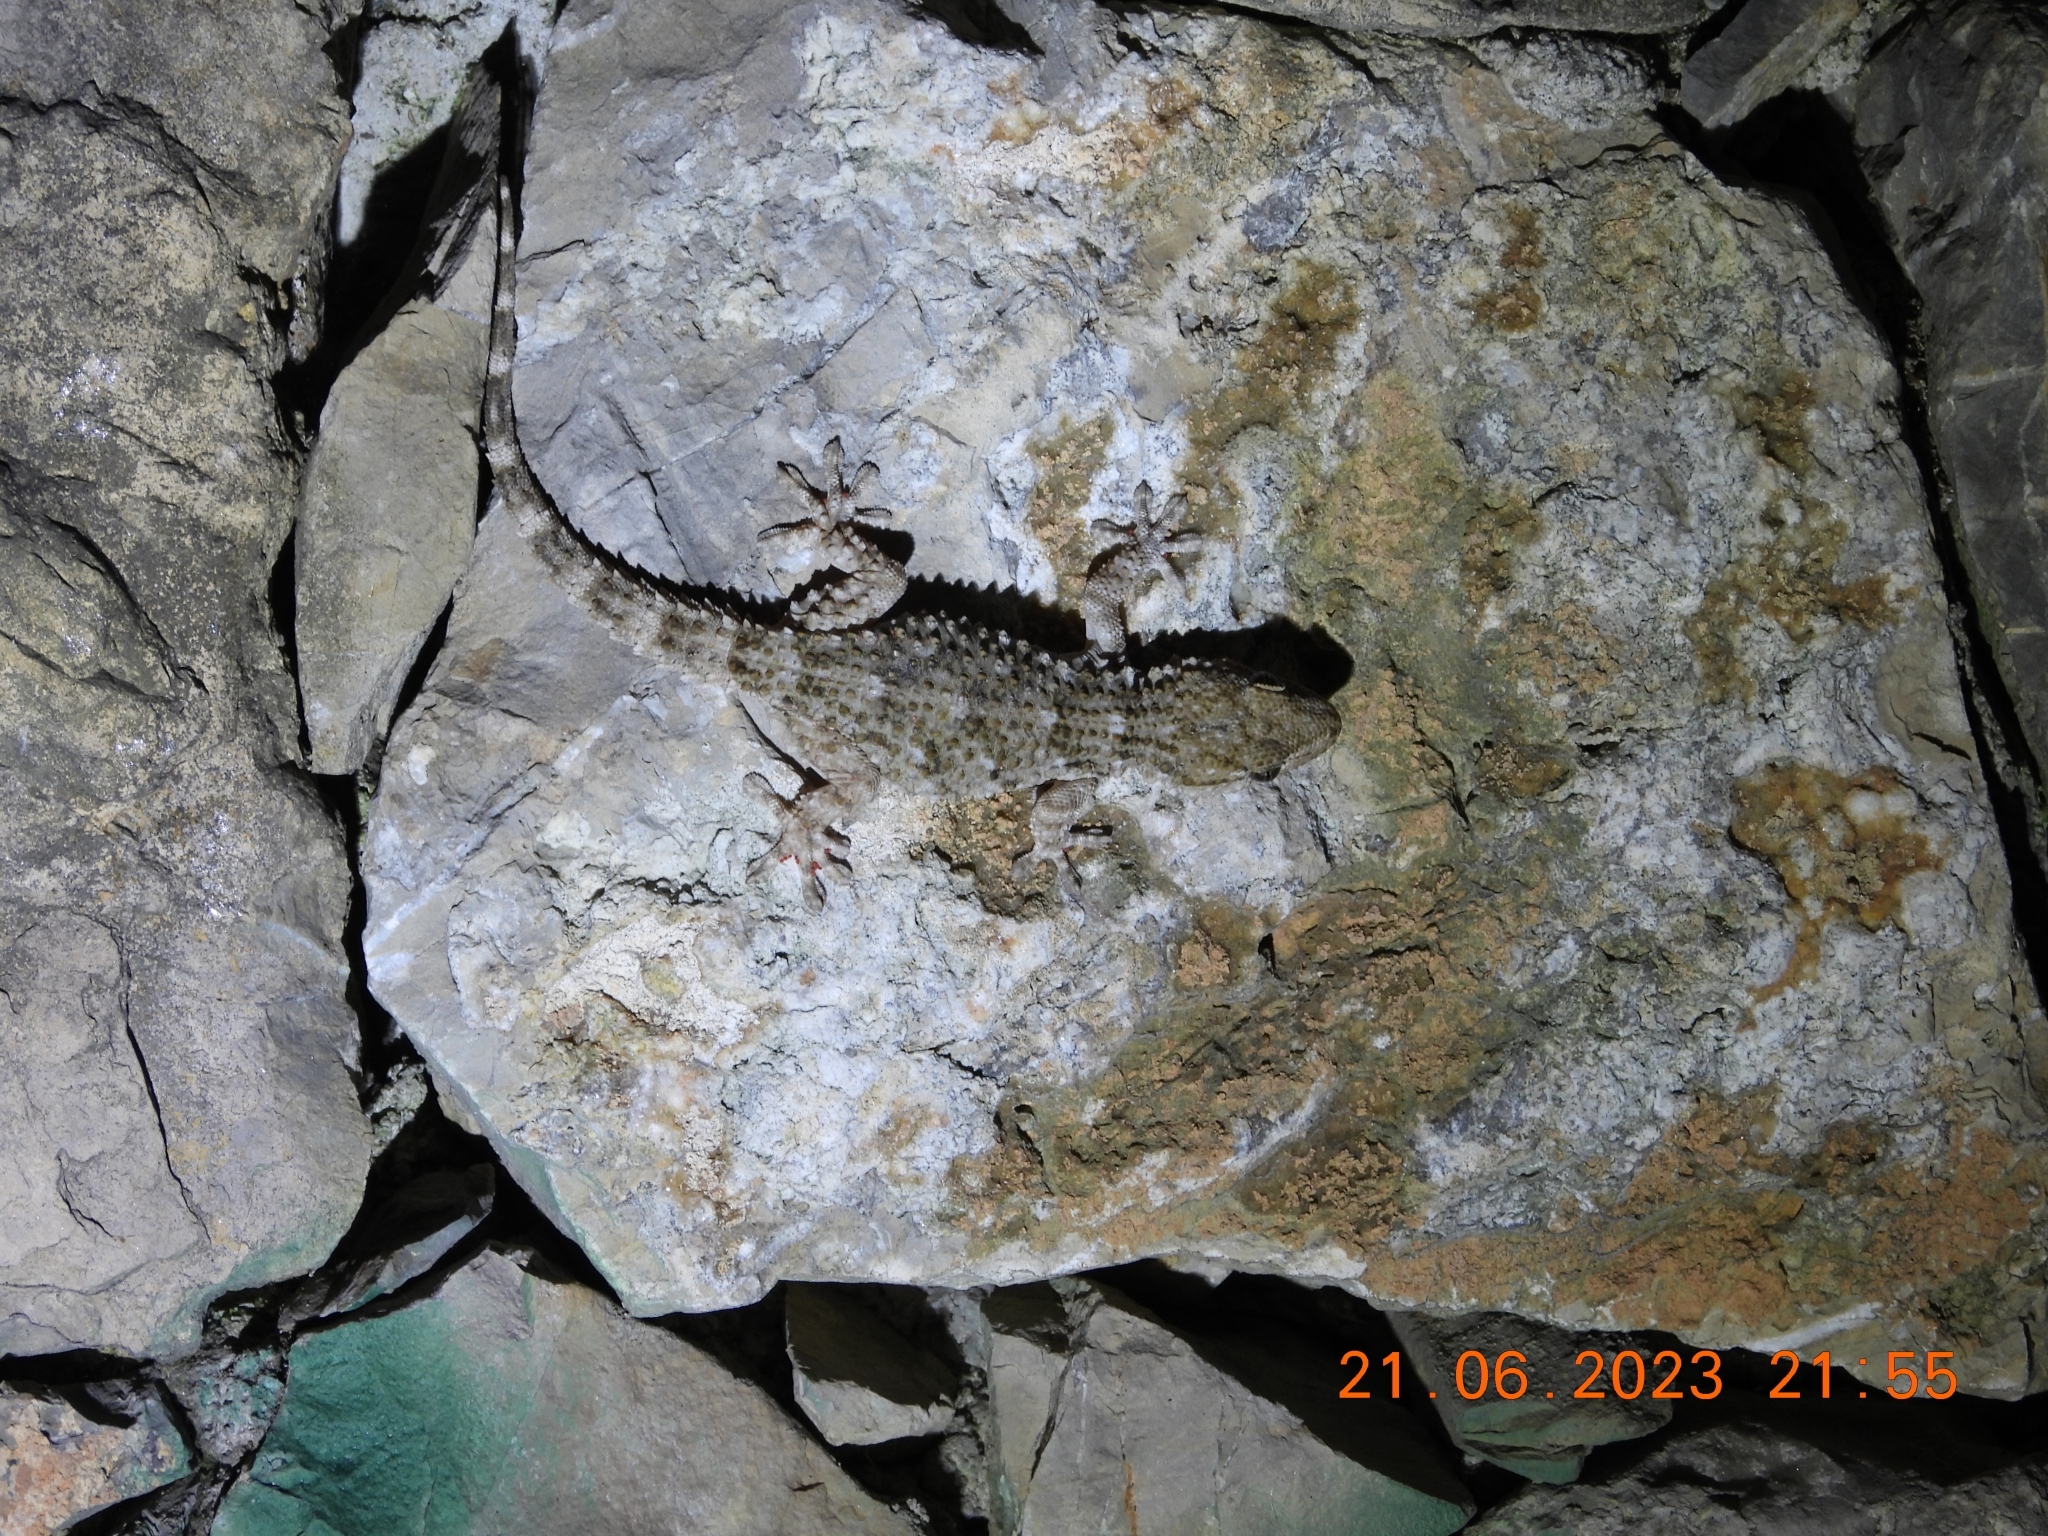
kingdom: Animalia
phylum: Chordata
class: Squamata
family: Phyllodactylidae
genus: Tarentola
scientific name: Tarentola mauritanica
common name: Moorish gecko
